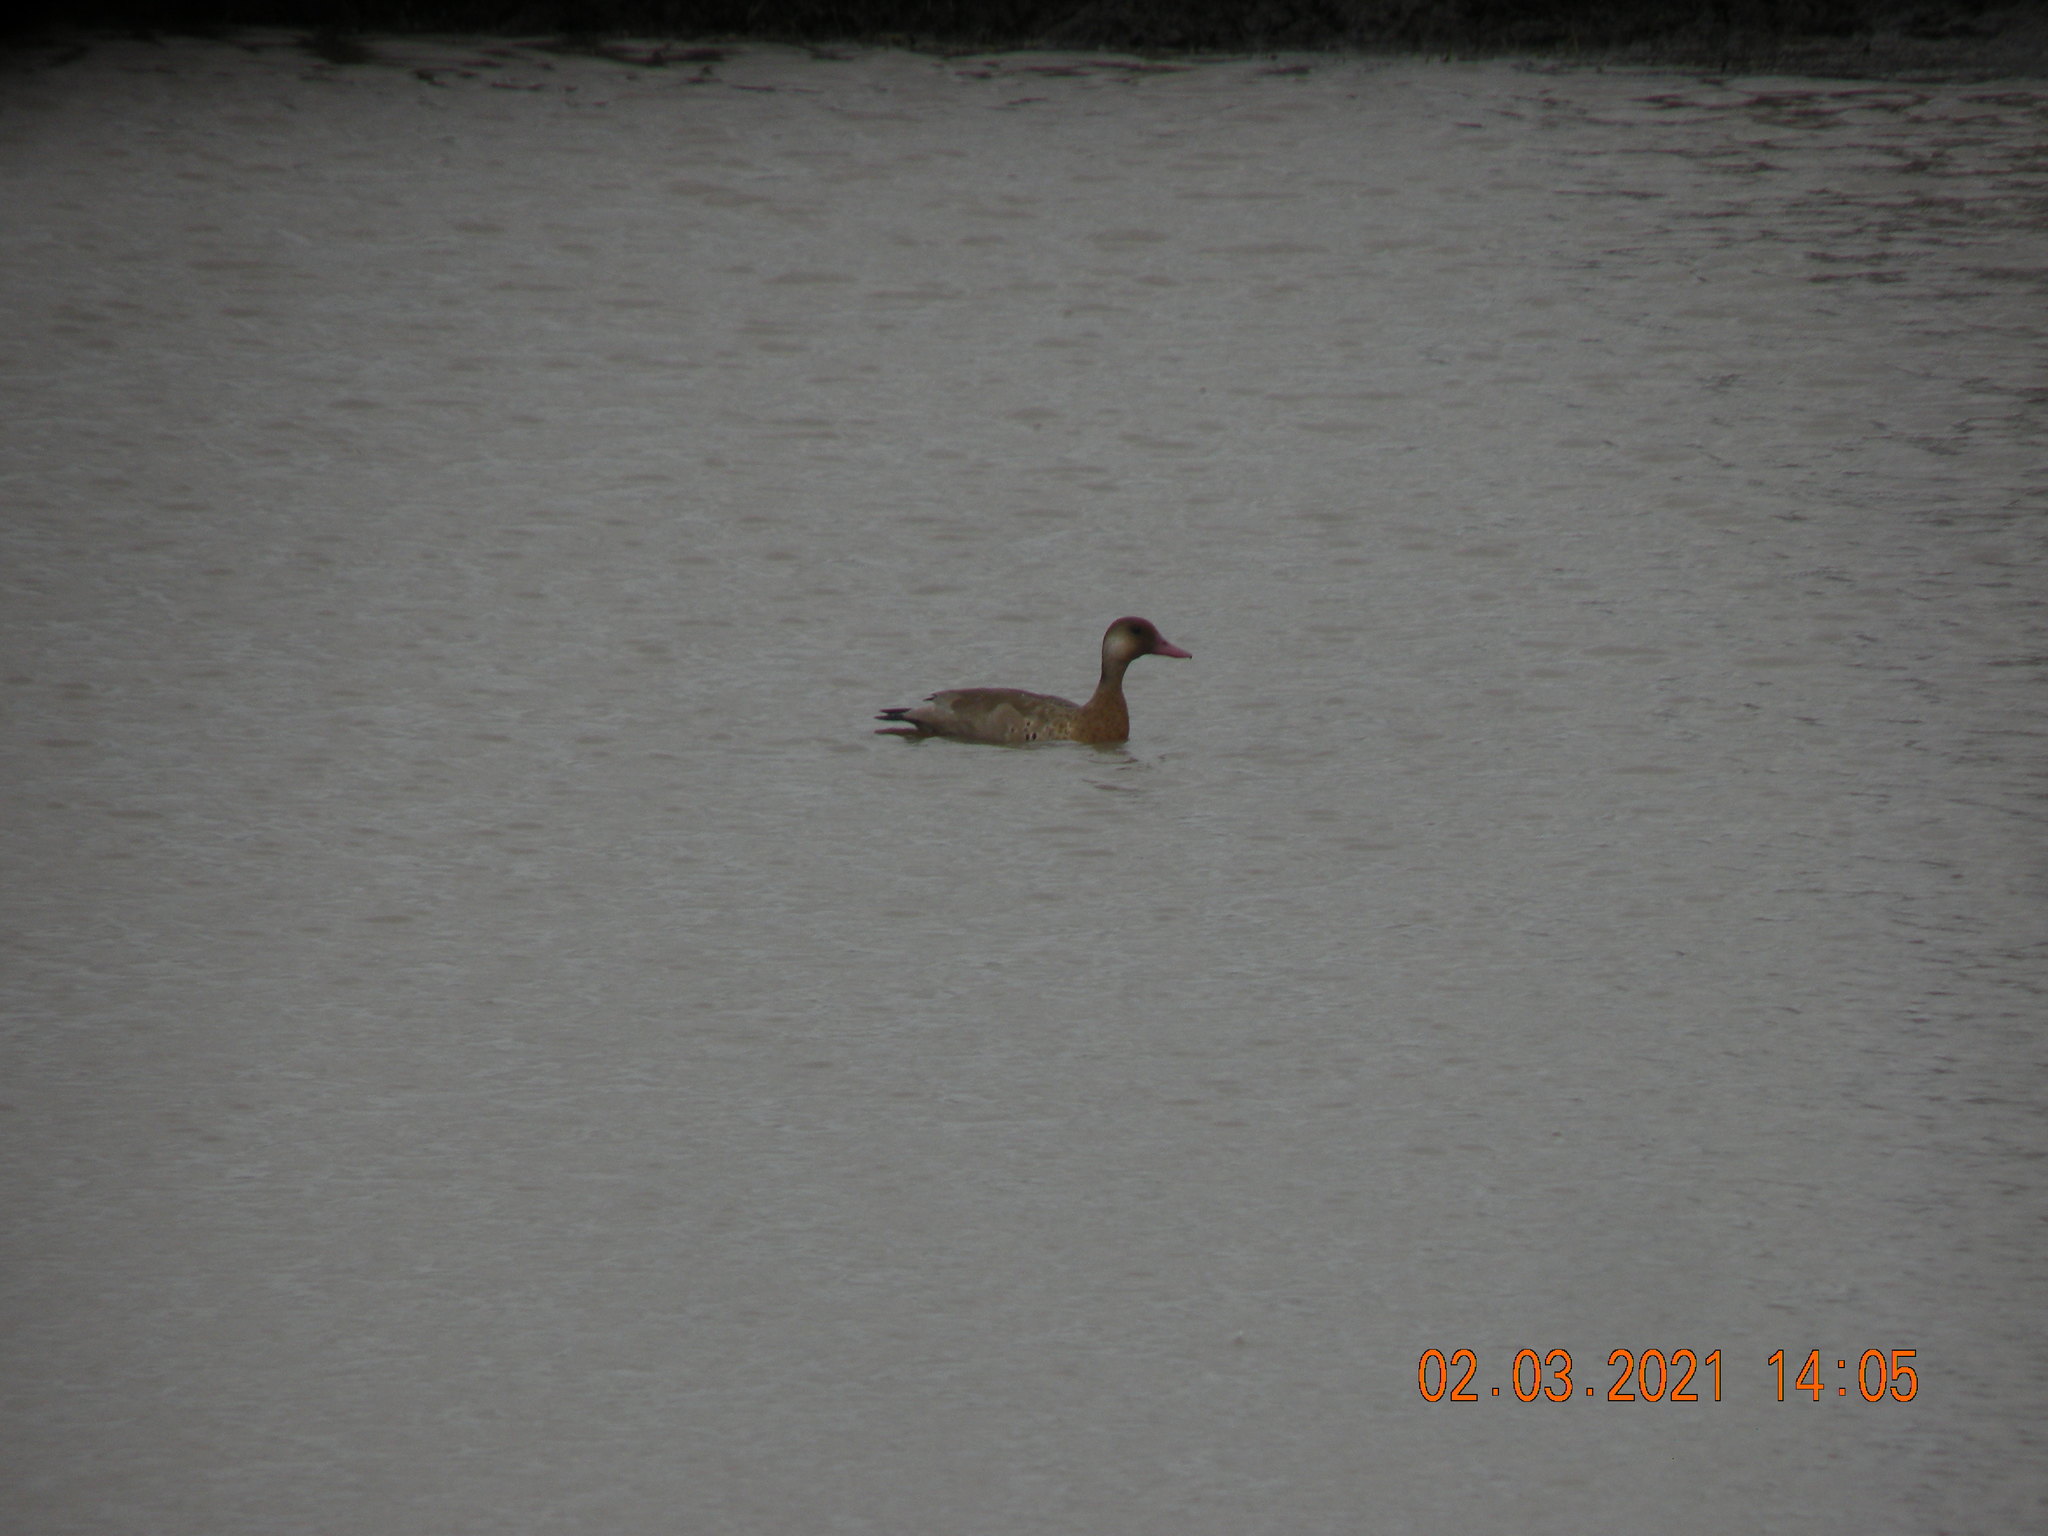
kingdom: Animalia
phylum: Chordata
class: Aves
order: Anseriformes
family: Anatidae
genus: Amazonetta
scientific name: Amazonetta brasiliensis
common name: Brazilian teal
